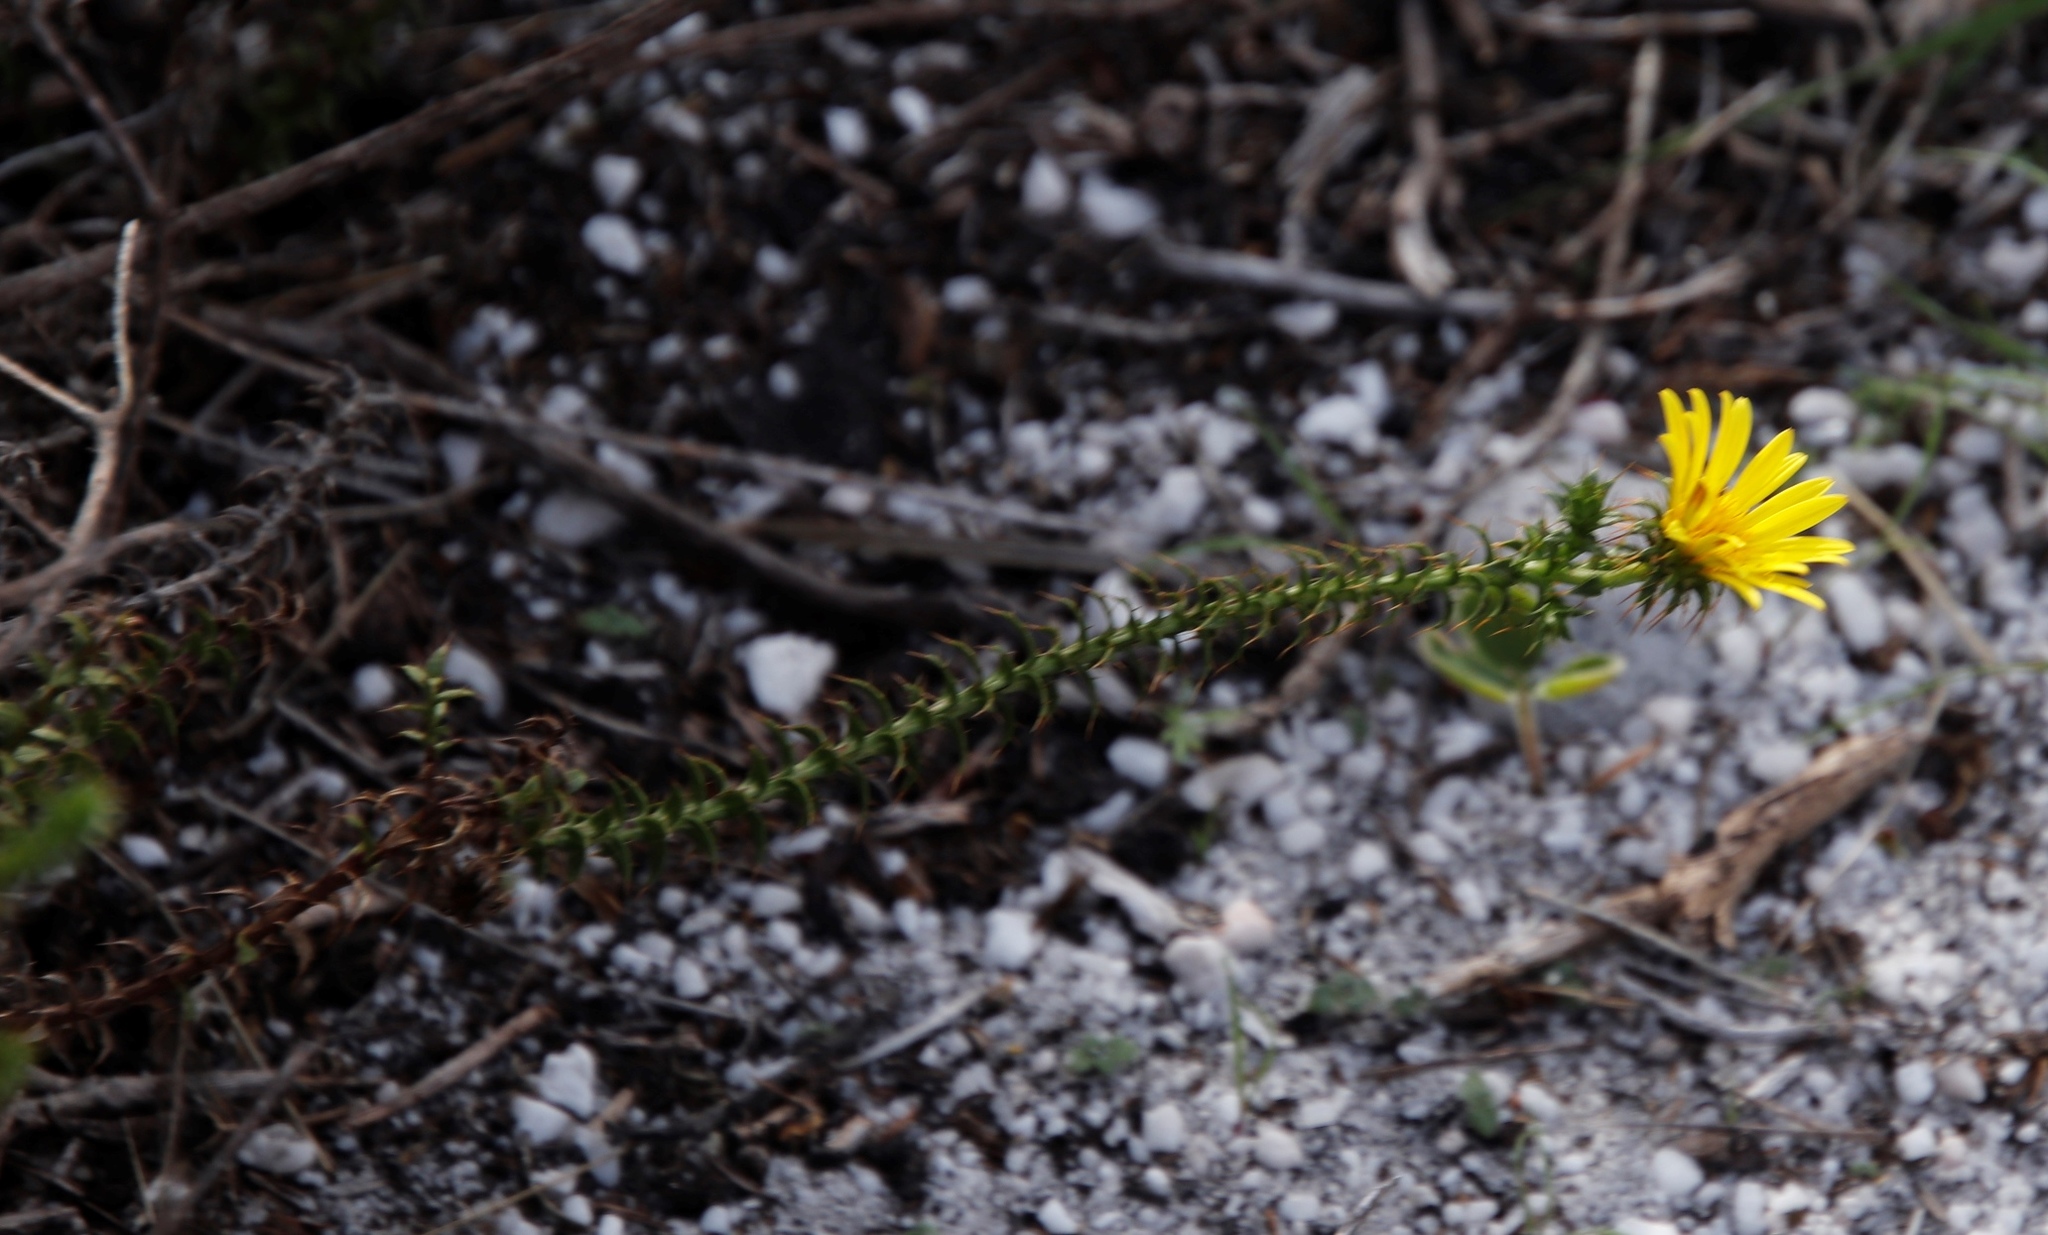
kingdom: Plantae
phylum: Tracheophyta
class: Magnoliopsida
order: Asterales
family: Asteraceae
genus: Cullumia
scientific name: Cullumia setosa
